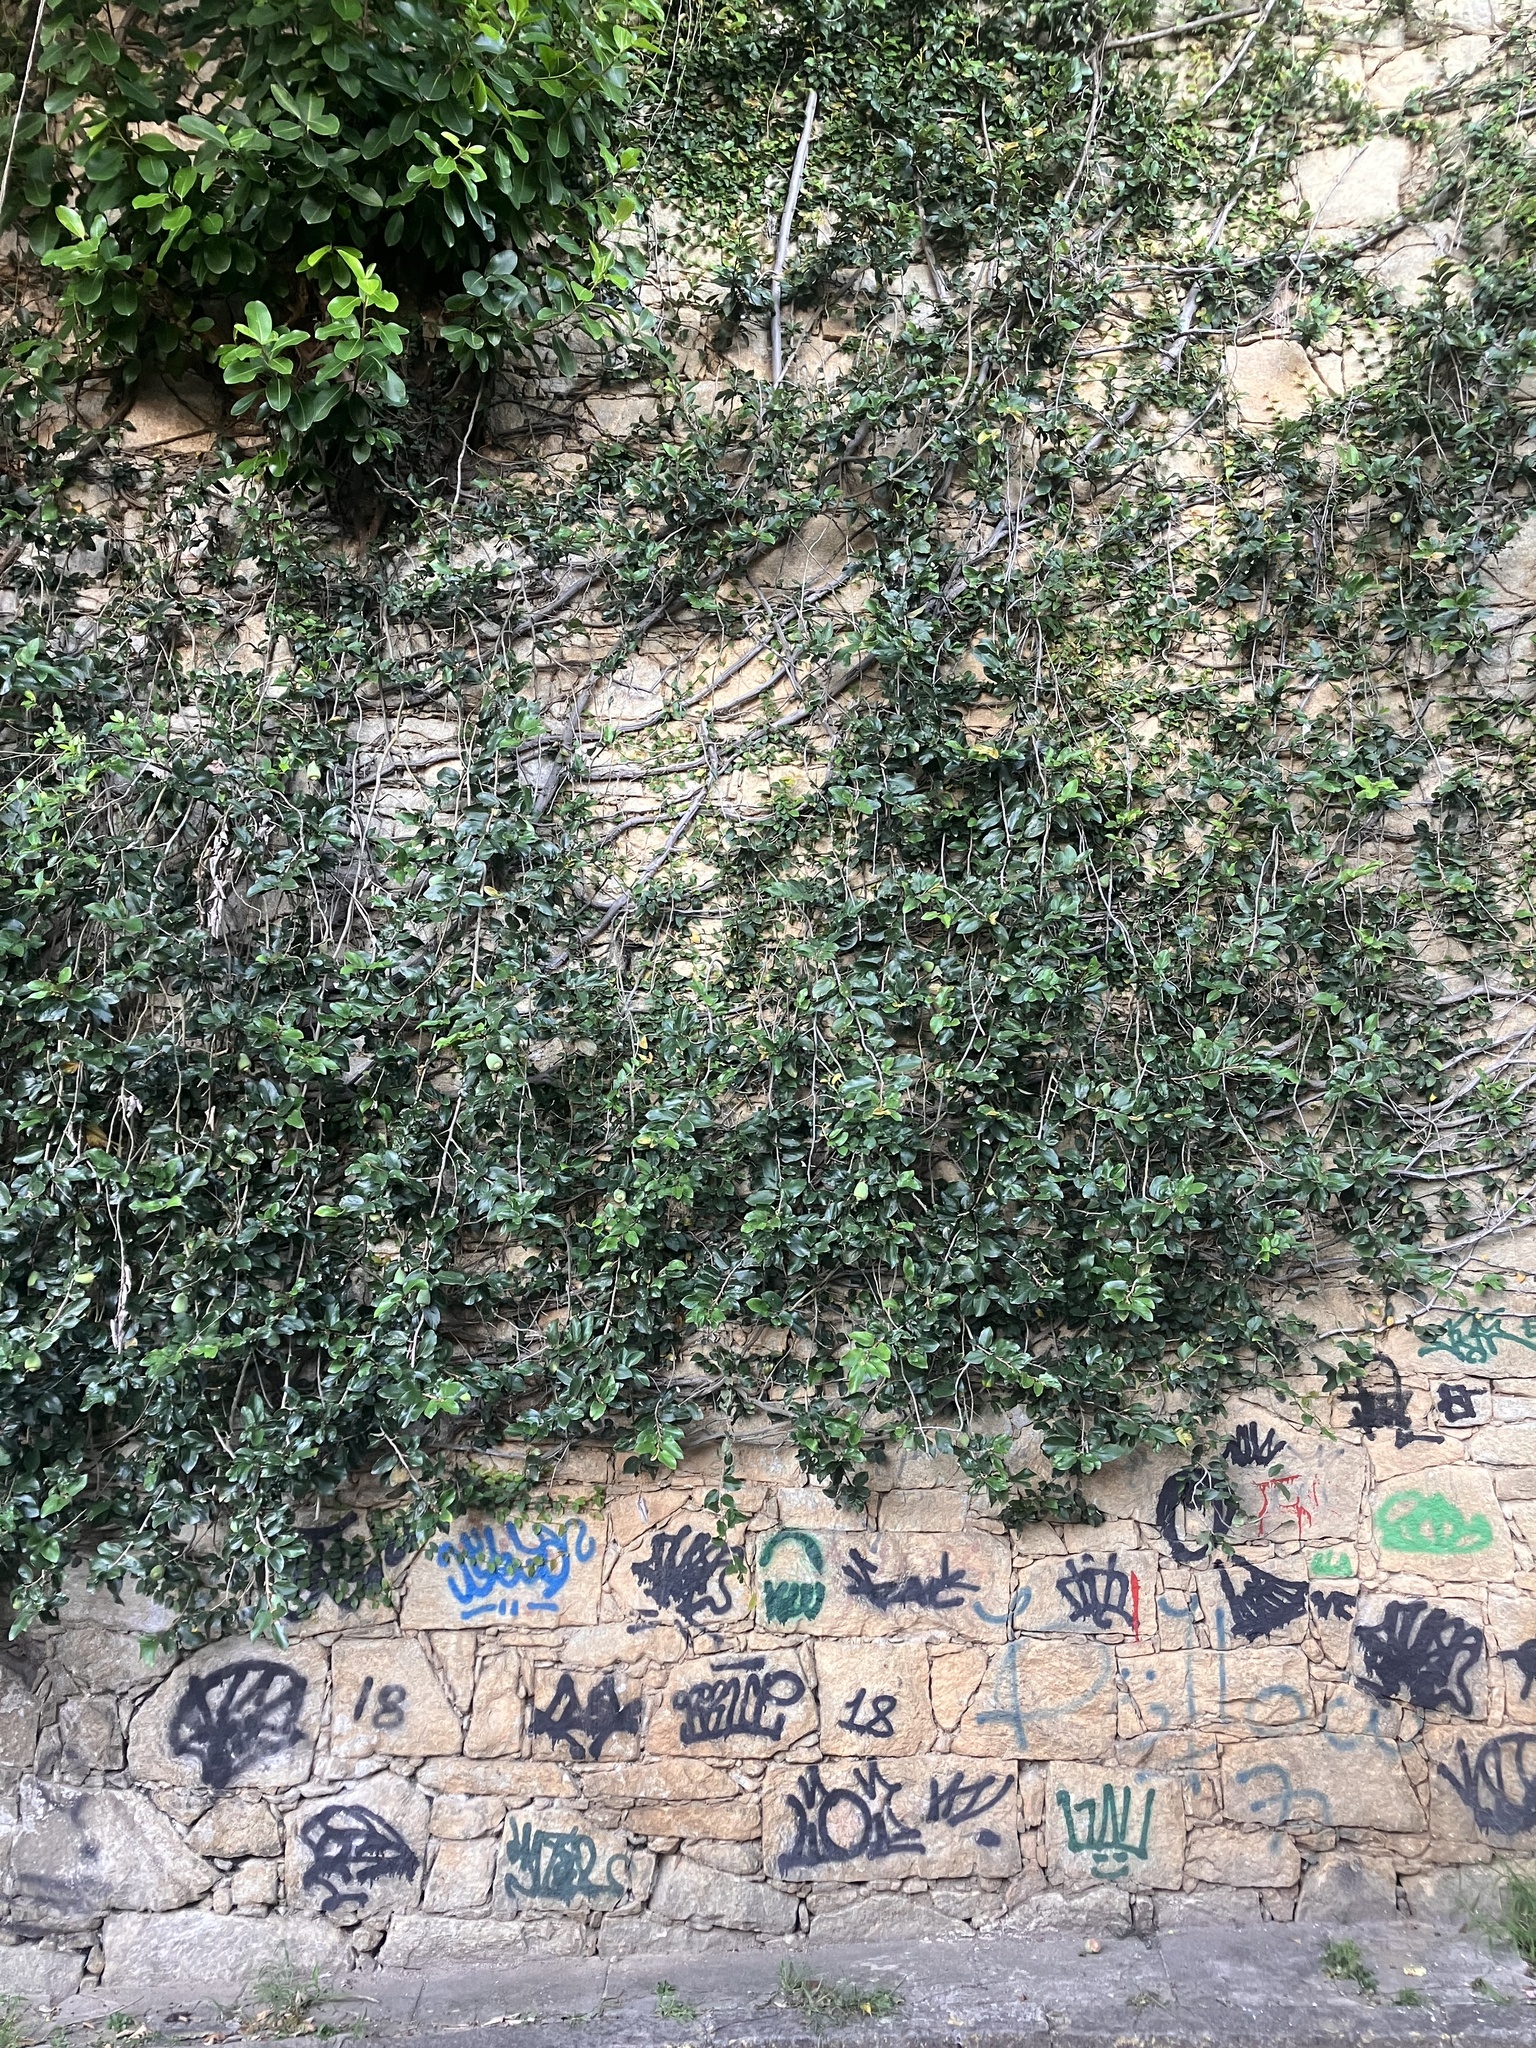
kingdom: Plantae
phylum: Tracheophyta
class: Magnoliopsida
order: Rosales
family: Moraceae
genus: Ficus
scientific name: Ficus pumila
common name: Climbingfig
